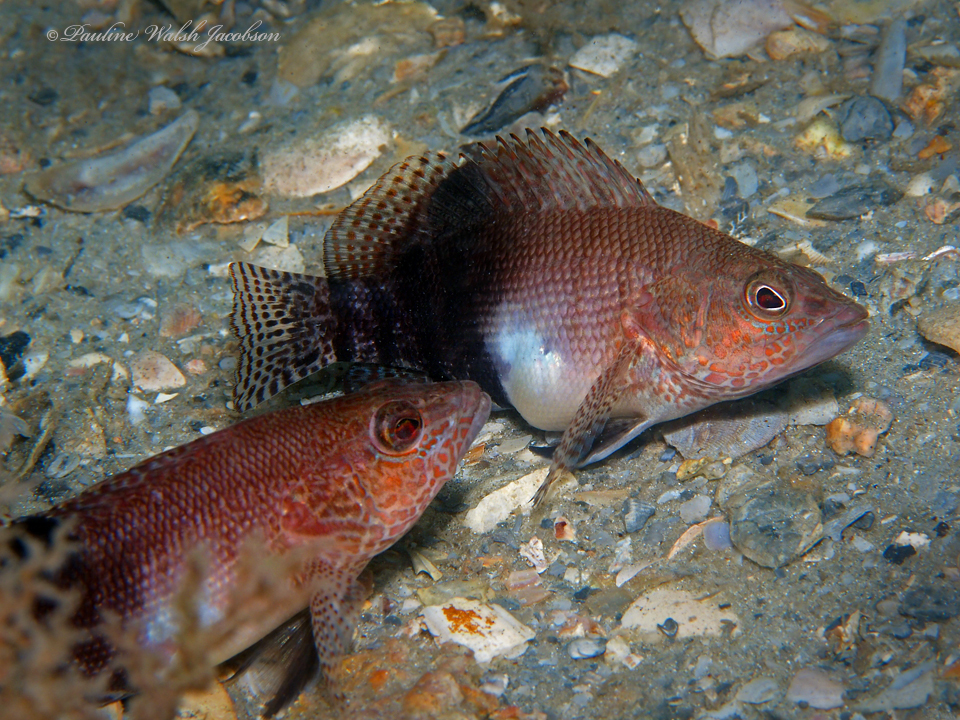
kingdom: Animalia
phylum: Chordata
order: Perciformes
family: Serranidae
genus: Serranus
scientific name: Serranus subligarius
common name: Belted sandfish
